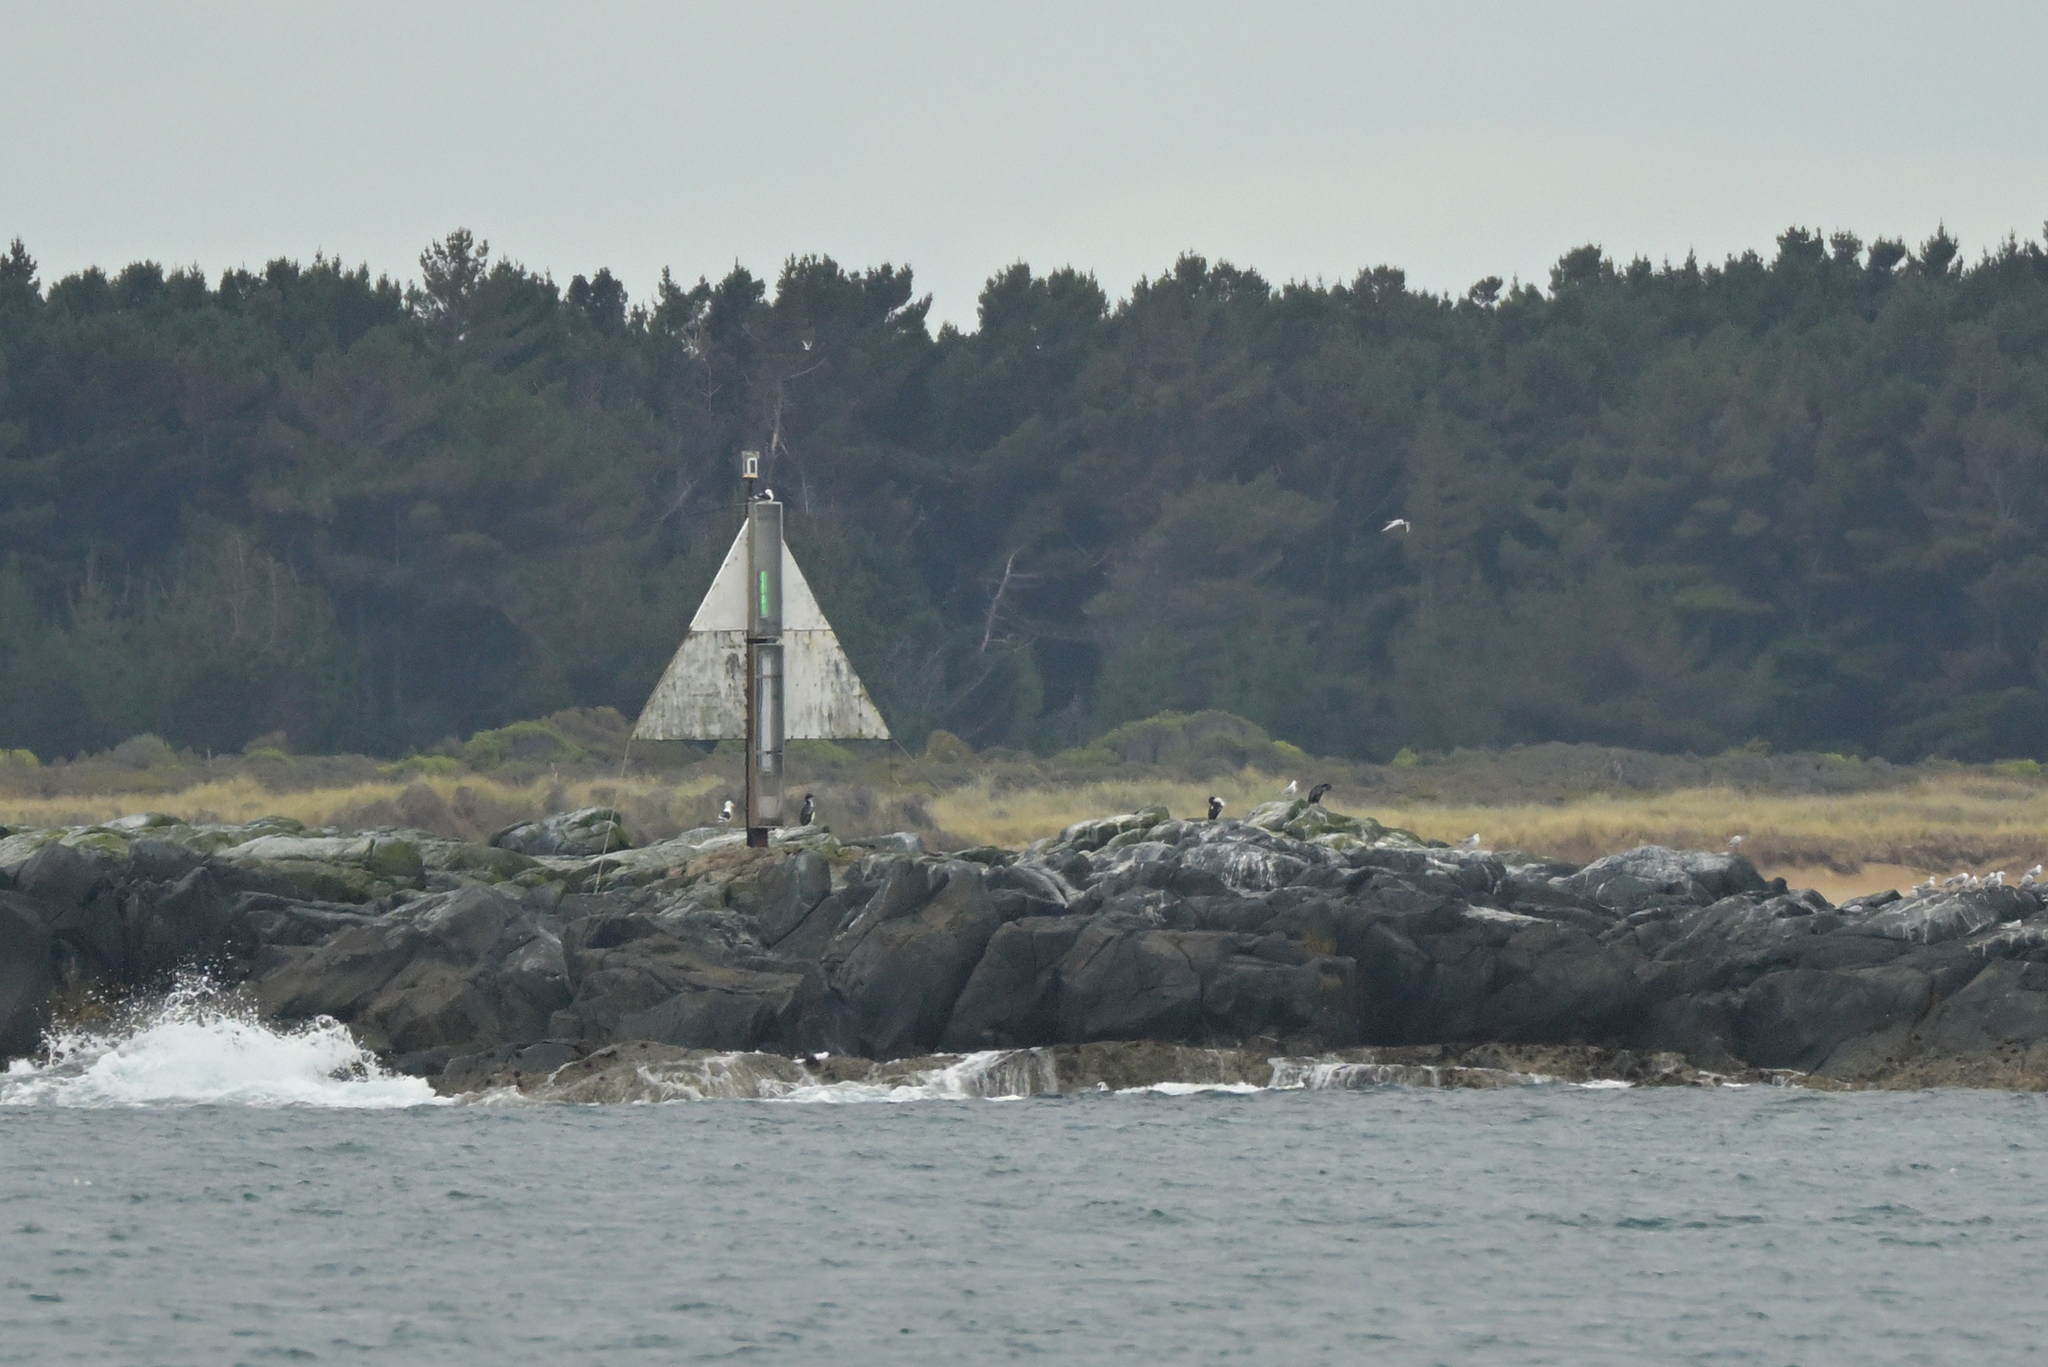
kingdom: Animalia
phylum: Chordata
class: Aves
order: Suliformes
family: Phalacrocoracidae
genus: Leucocarbo
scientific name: Leucocarbo chalconotus
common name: Stewart shag
